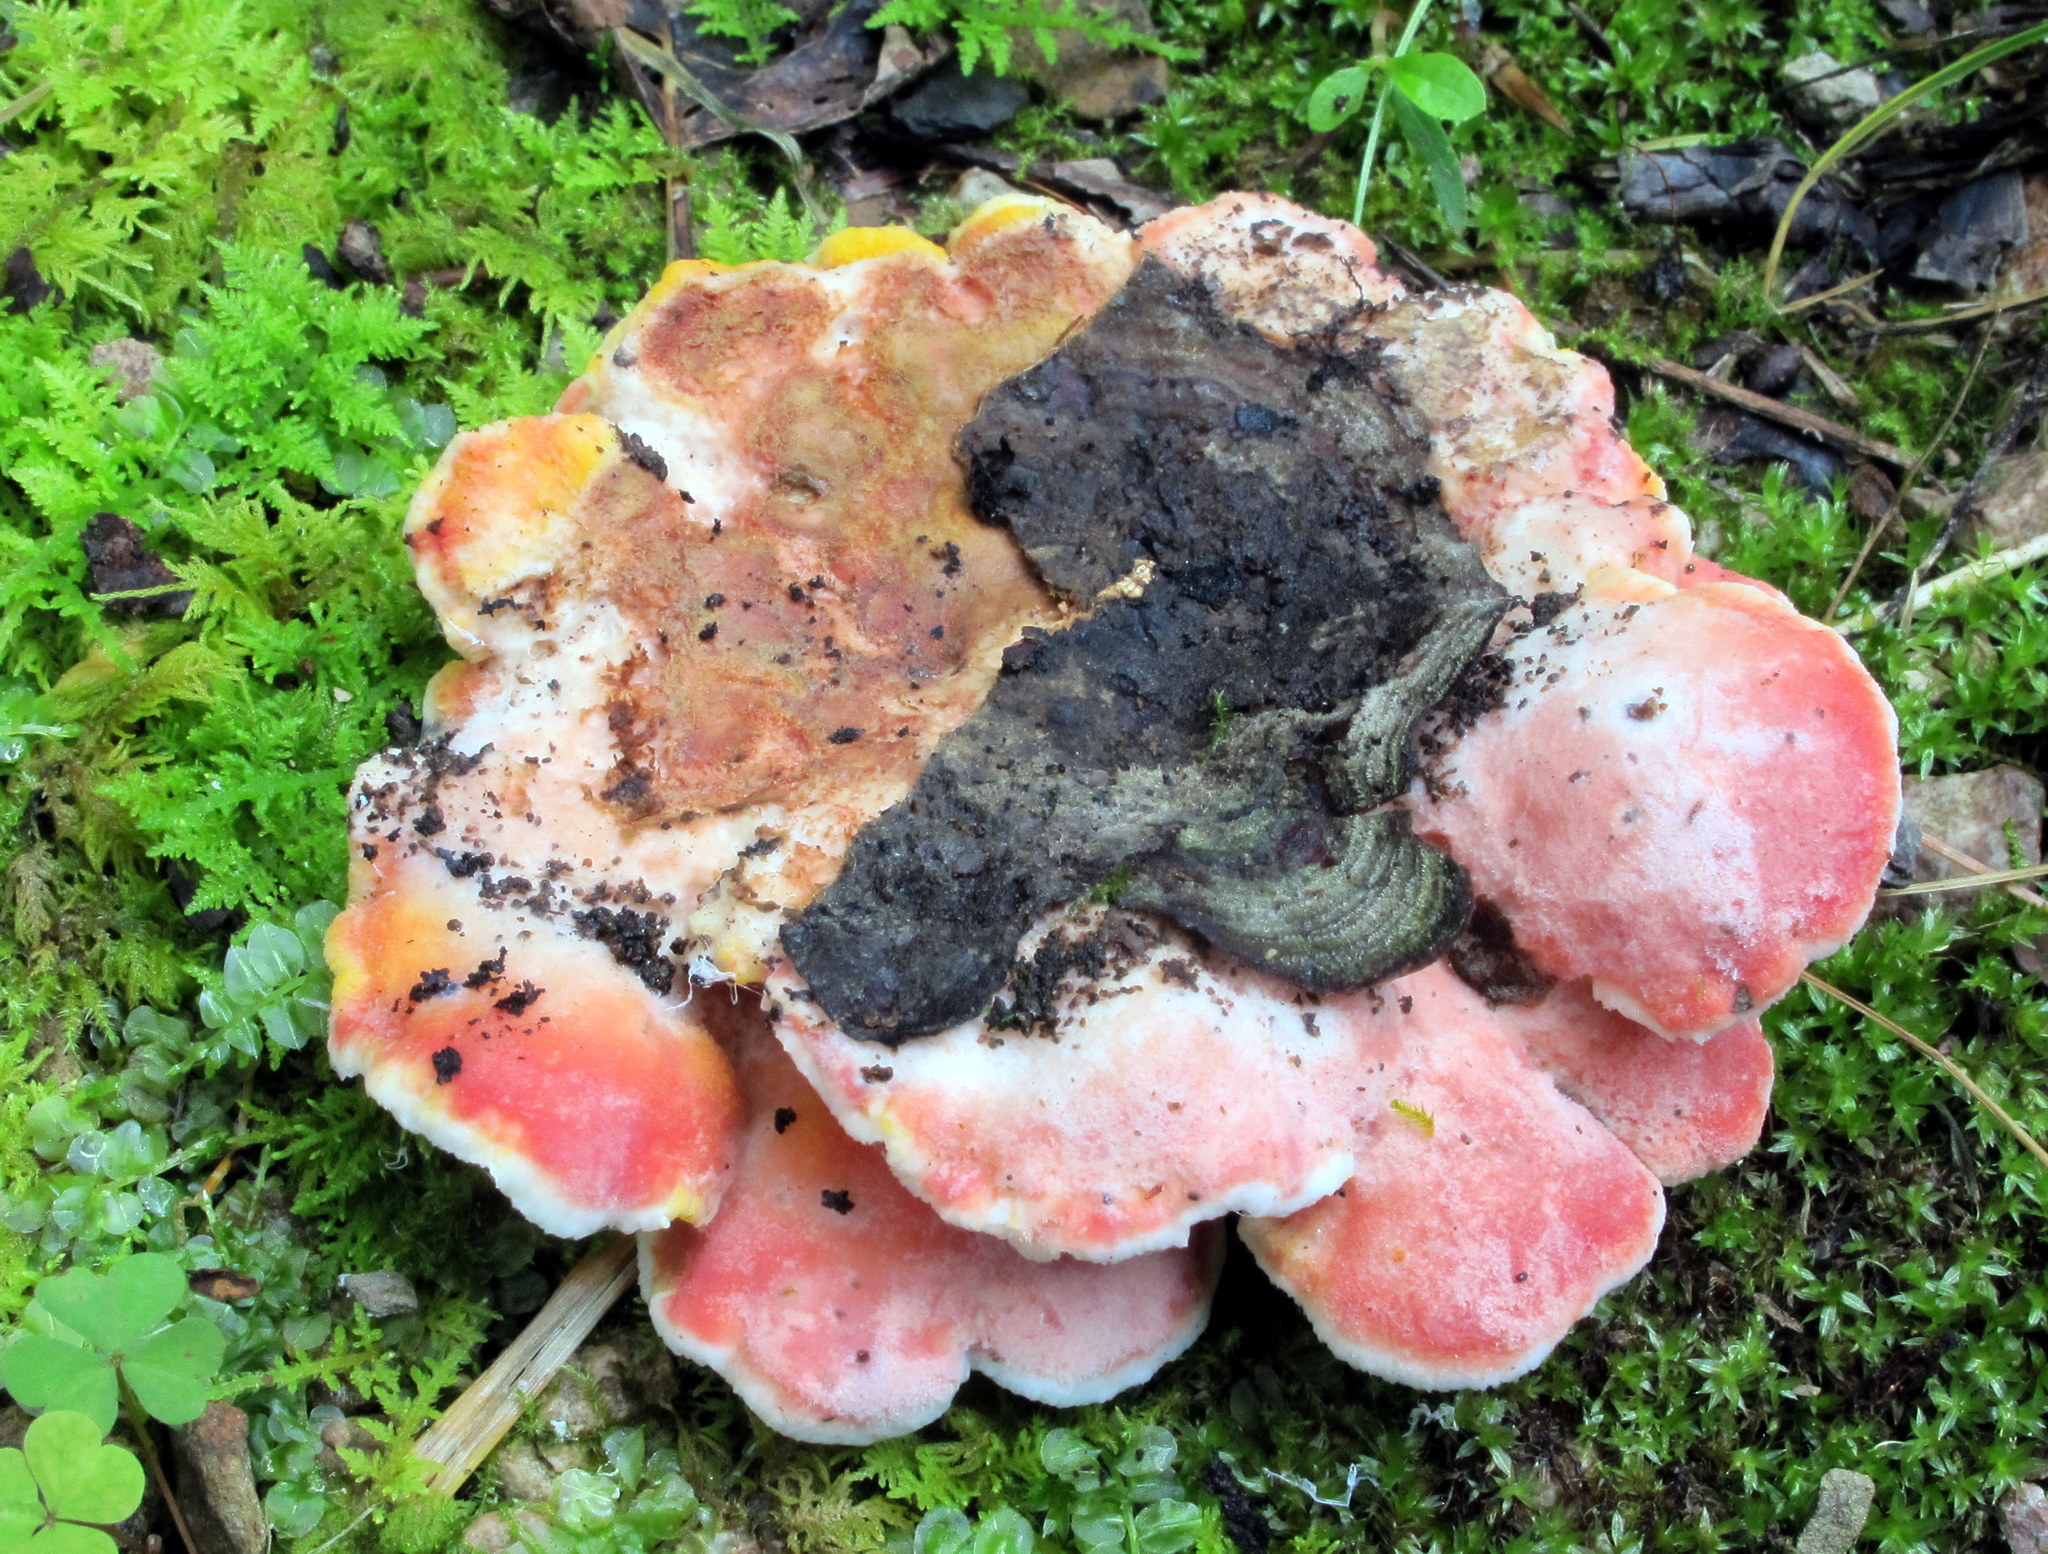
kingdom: Fungi
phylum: Basidiomycota
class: Agaricomycetes
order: Polyporales
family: Irpicaceae
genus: Byssomerulius
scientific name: Byssomerulius incarnatus
